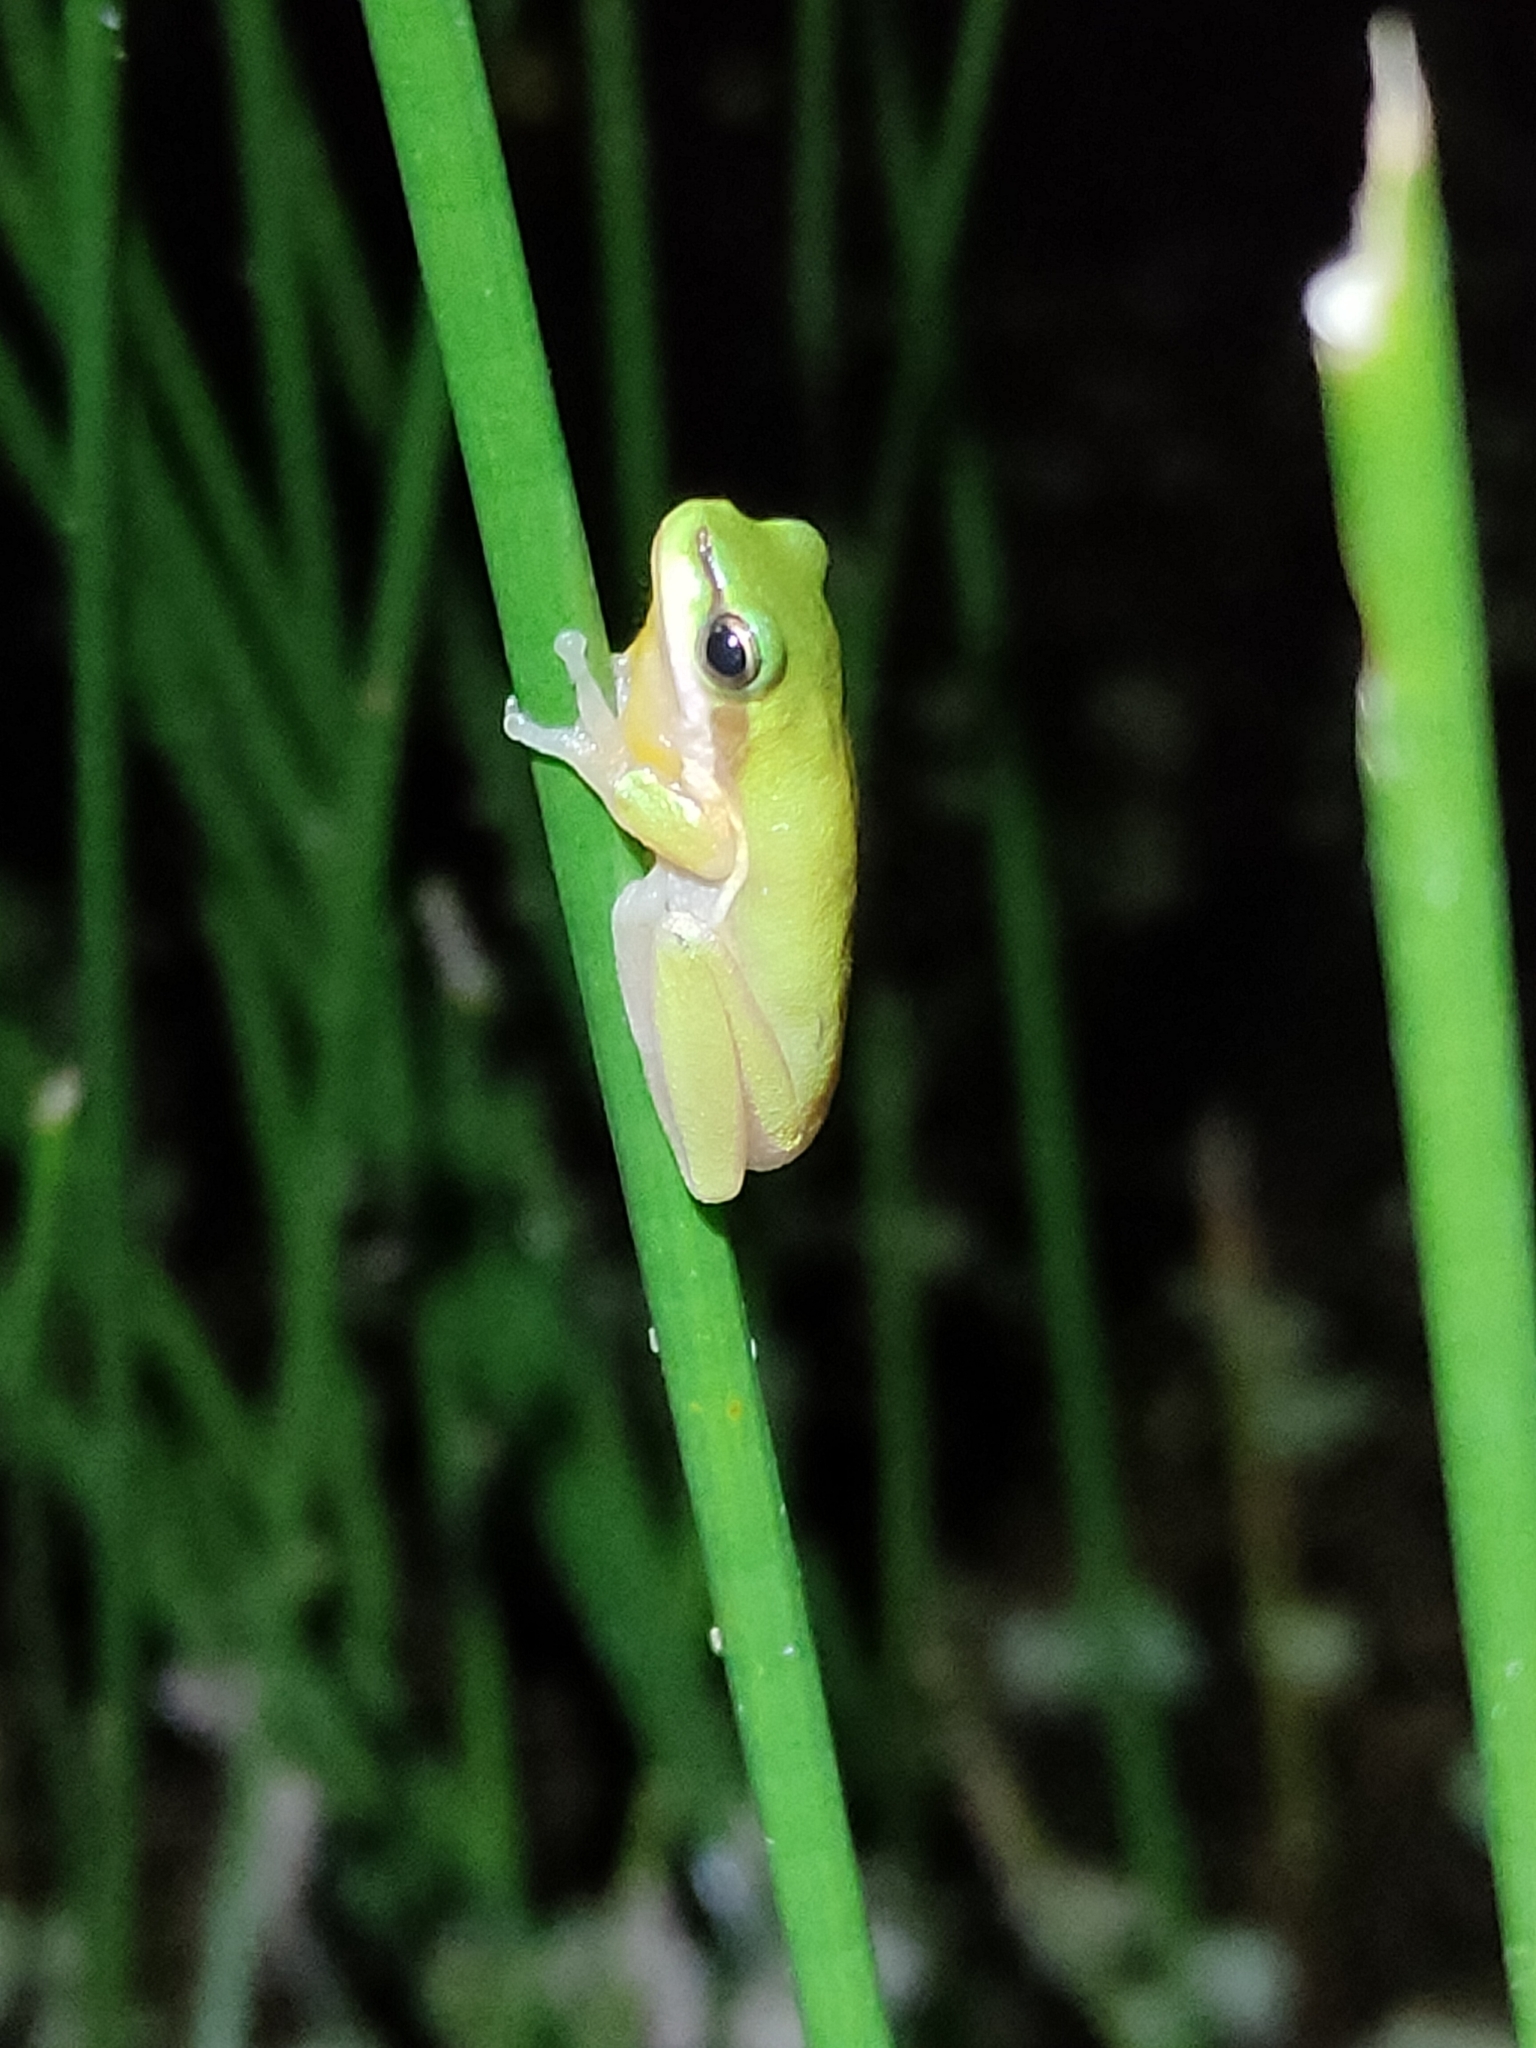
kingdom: Animalia
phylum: Chordata
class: Amphibia
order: Anura
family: Pelodryadidae
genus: Litoria
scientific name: Litoria fallax
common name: Eastern dwarf treefrog
